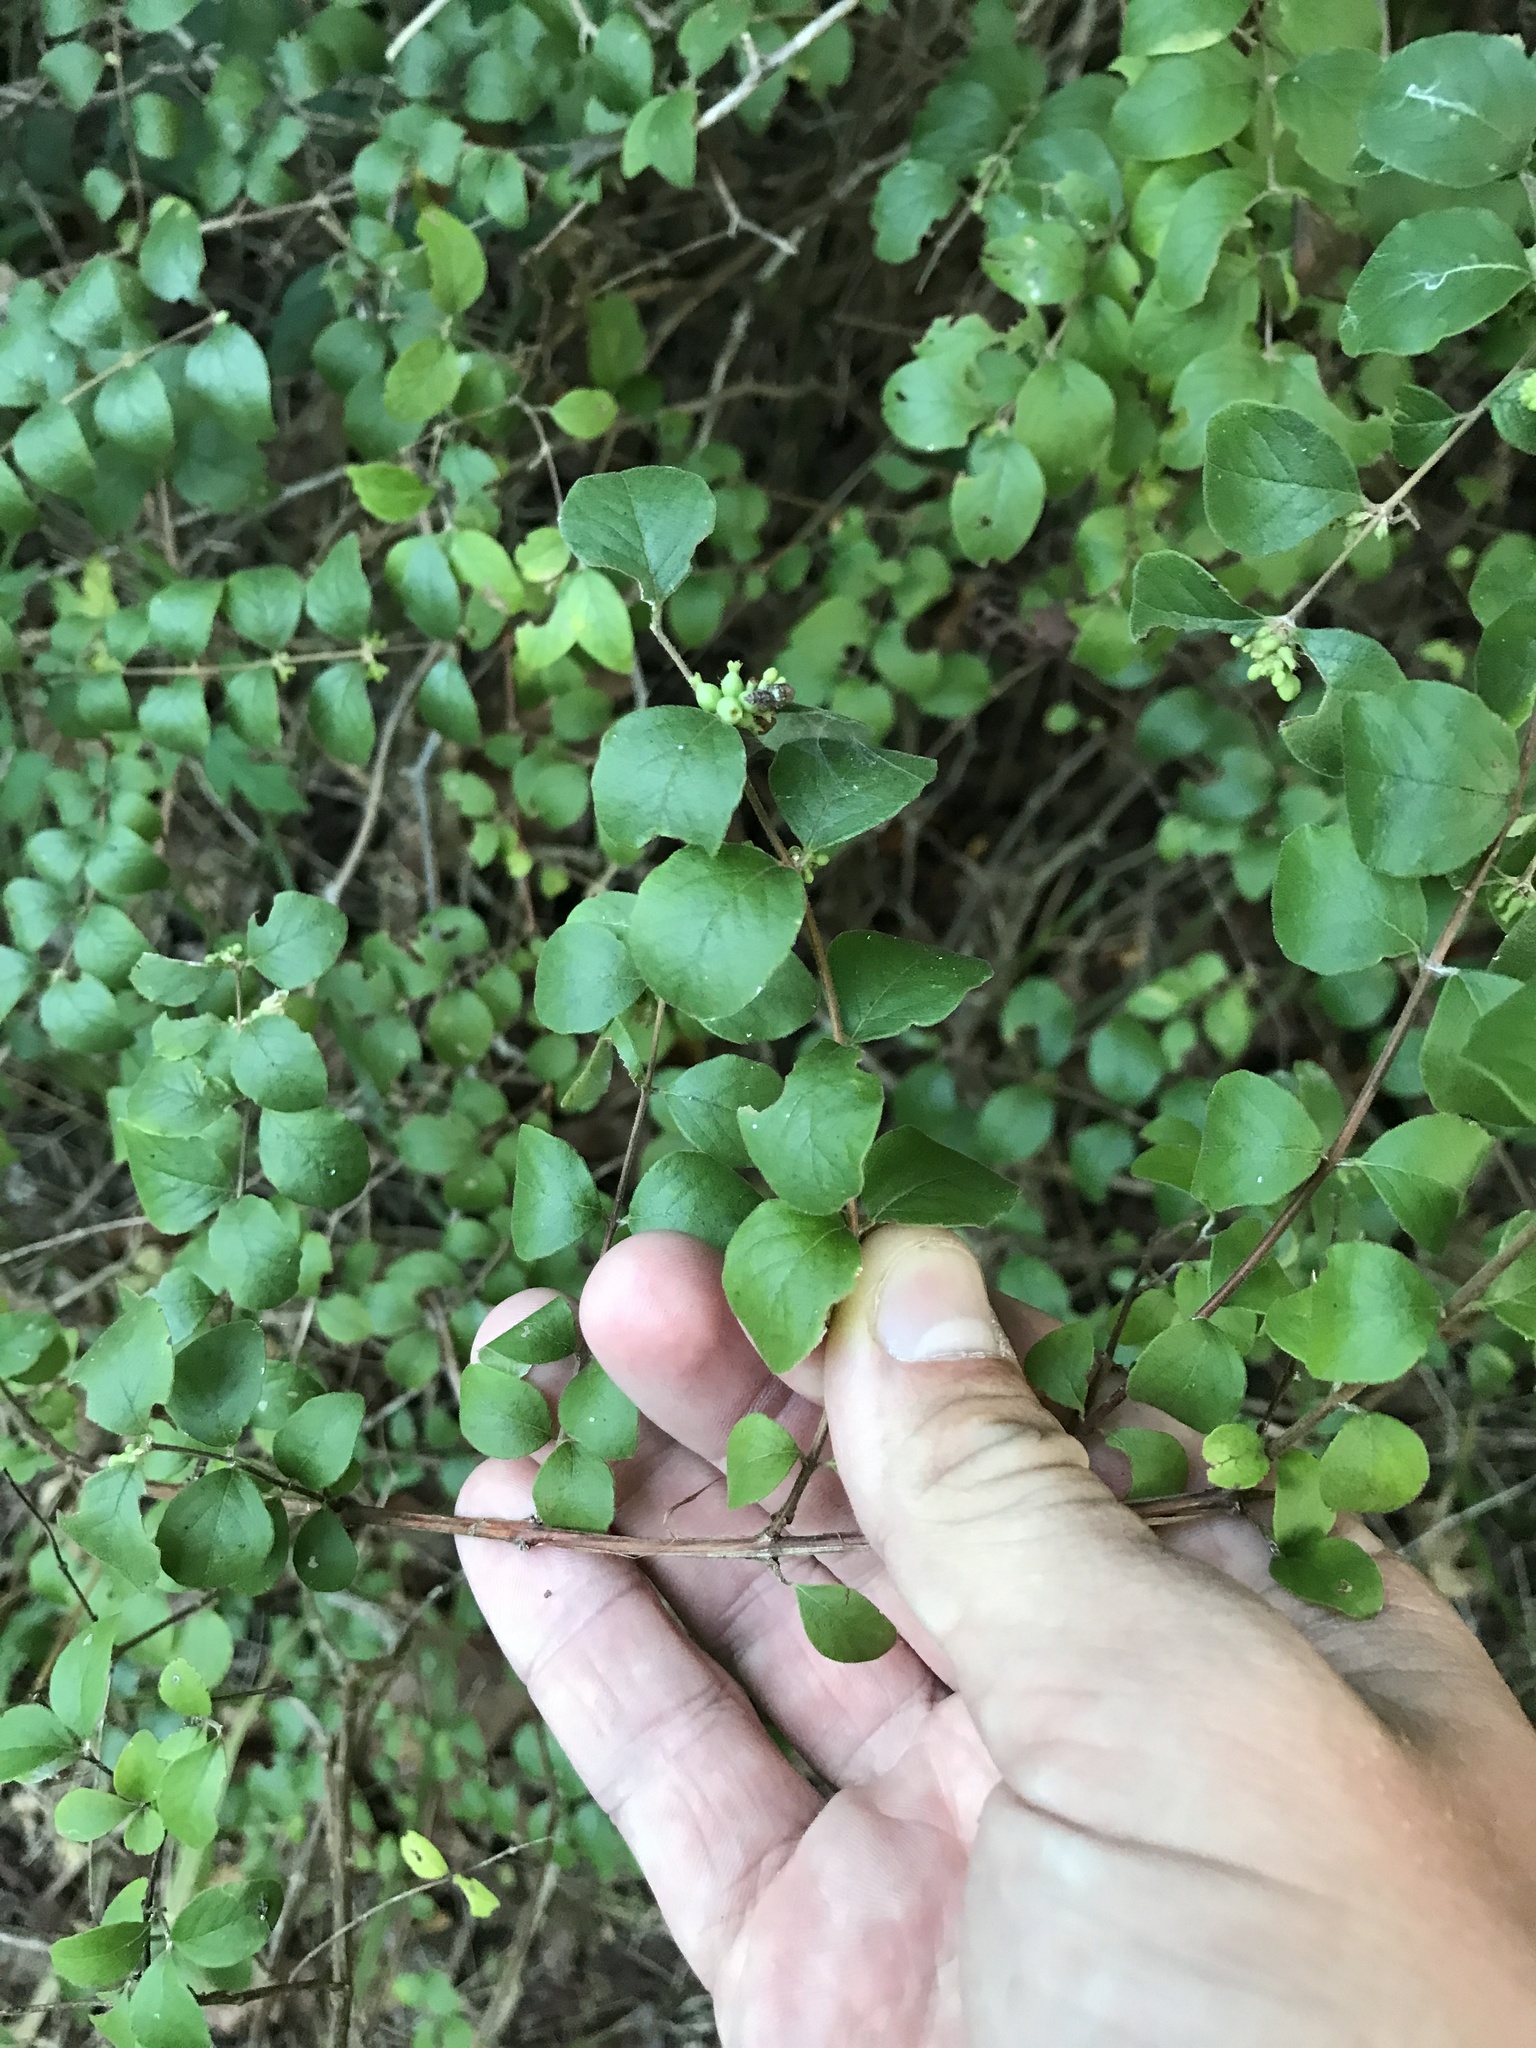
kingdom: Plantae
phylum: Tracheophyta
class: Magnoliopsida
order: Dipsacales
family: Caprifoliaceae
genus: Symphoricarpos
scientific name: Symphoricarpos orbiculatus
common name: Coralberry
